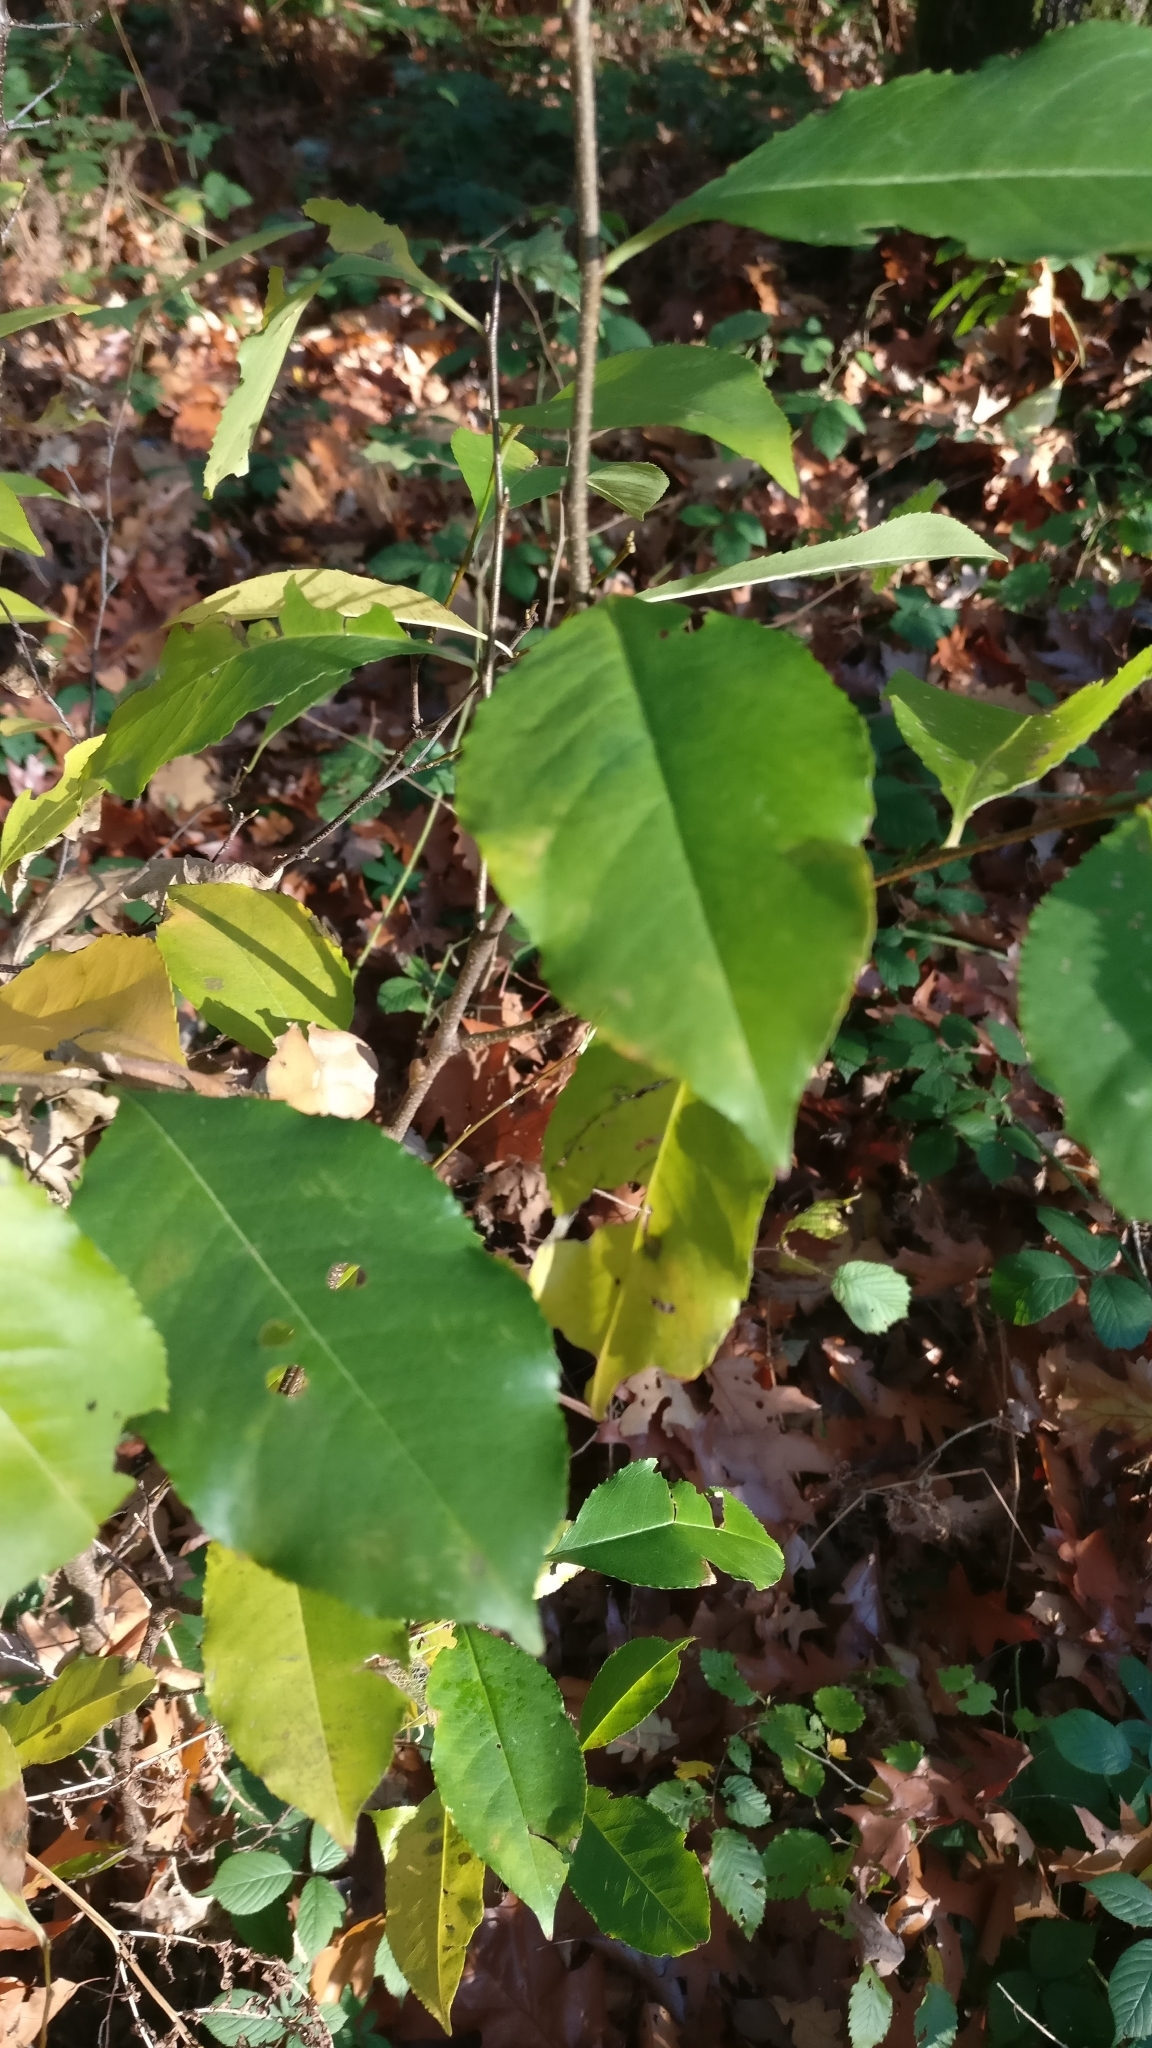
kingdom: Plantae
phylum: Tracheophyta
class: Magnoliopsida
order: Rosales
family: Rosaceae
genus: Prunus
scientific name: Prunus serotina
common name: Black cherry
